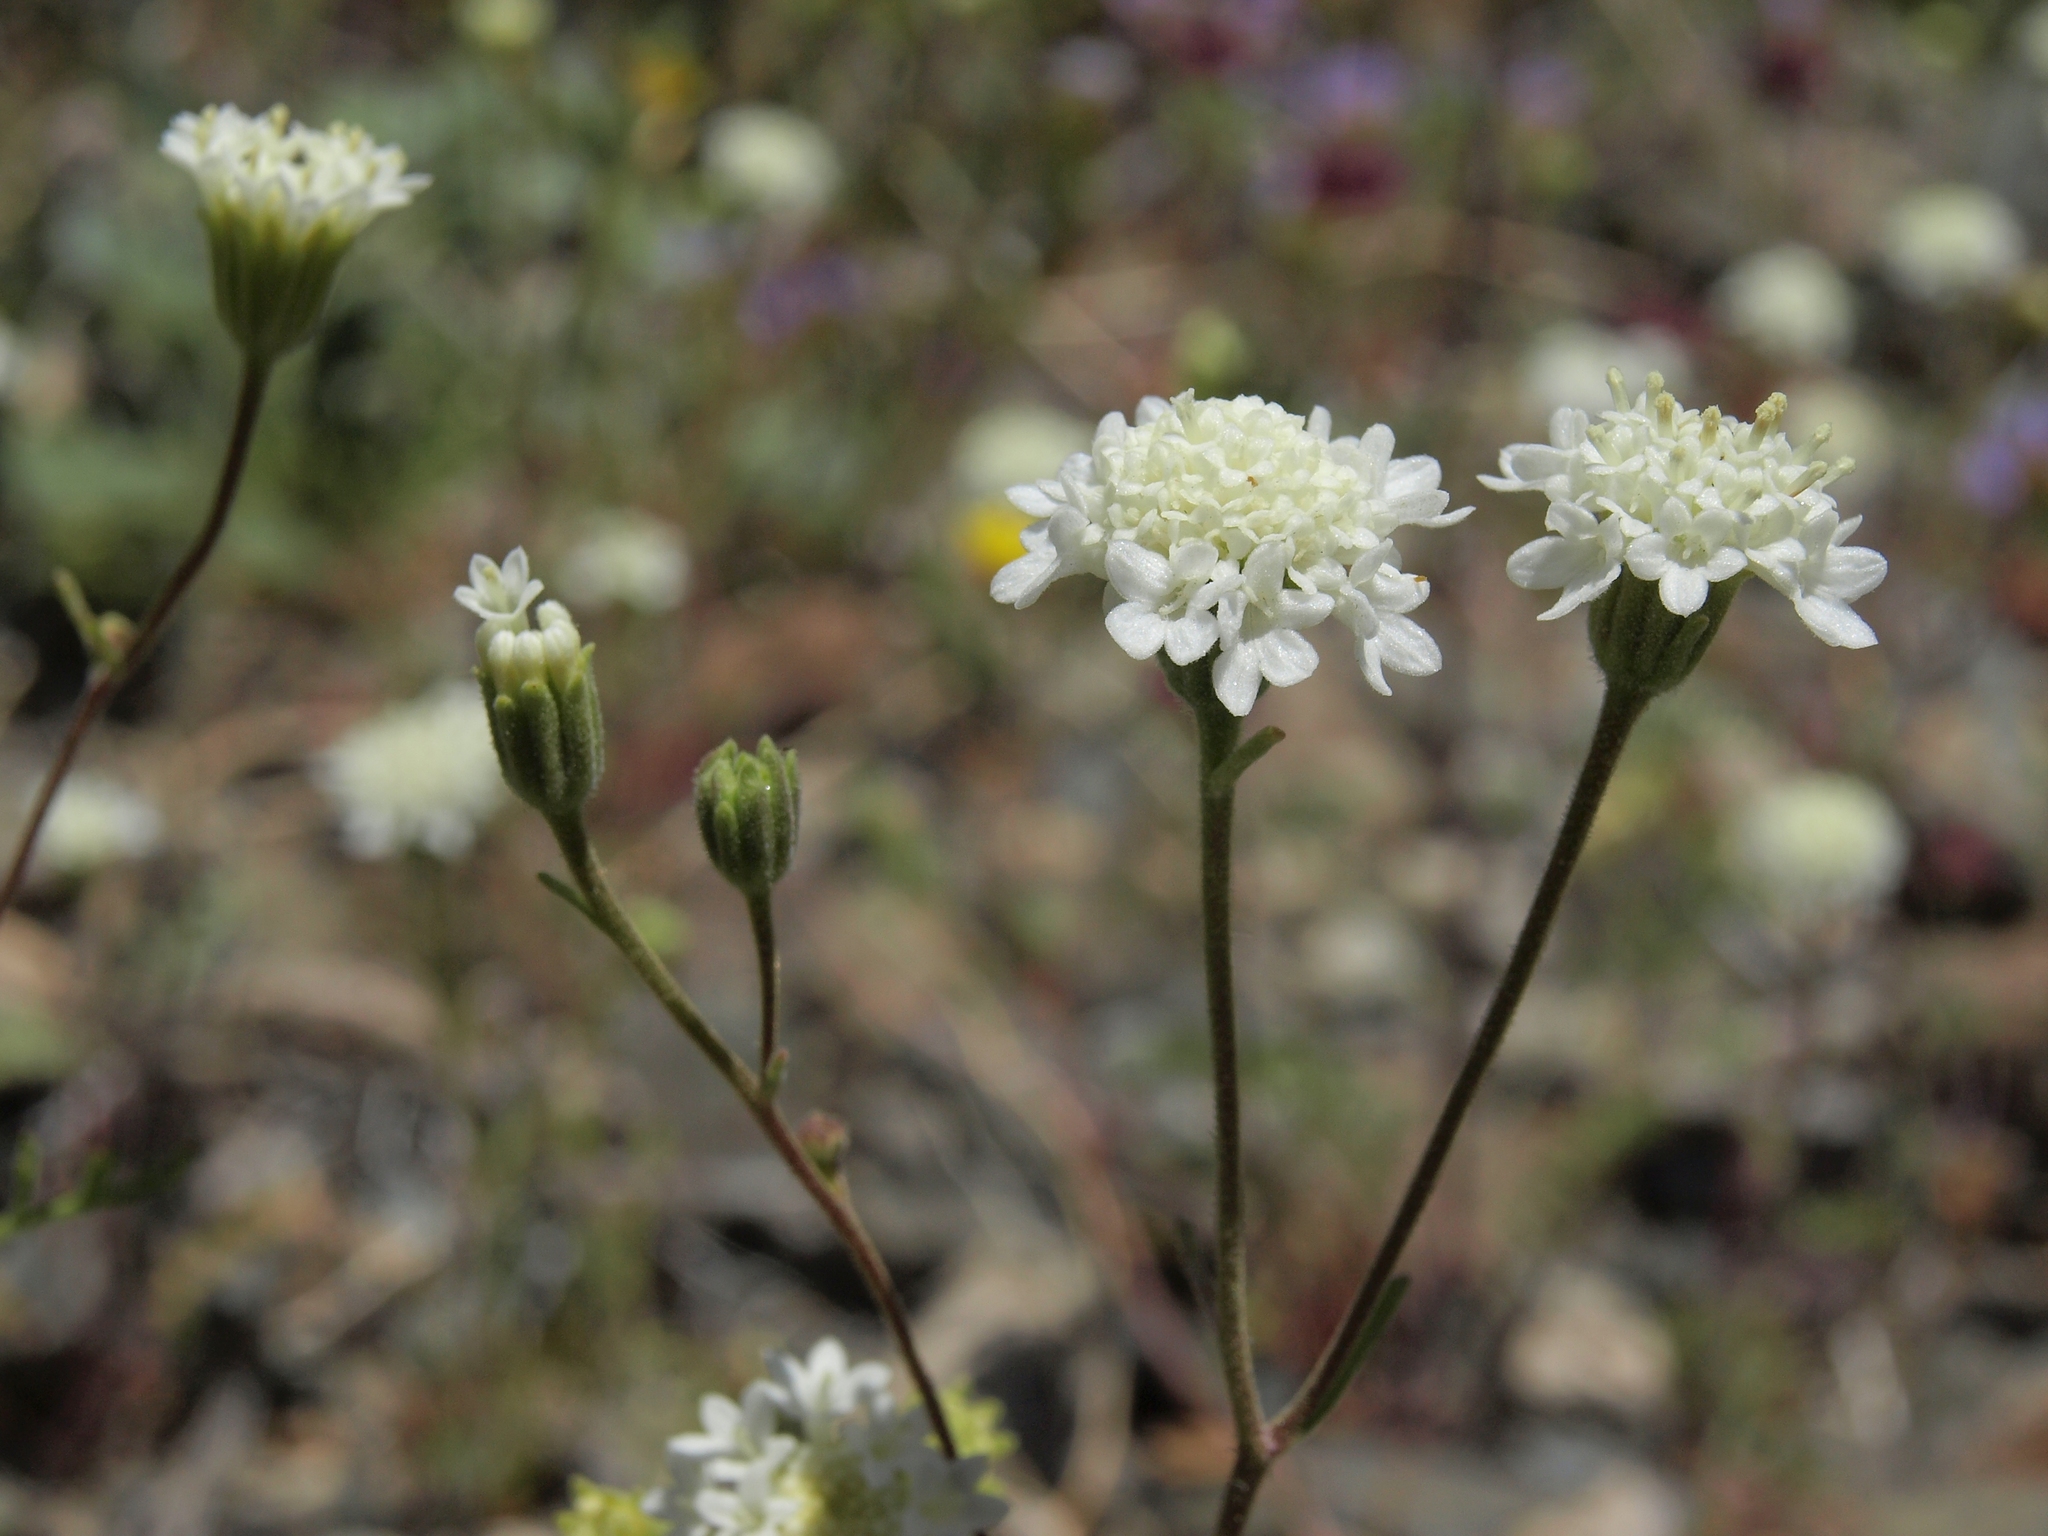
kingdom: Plantae
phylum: Tracheophyta
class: Magnoliopsida
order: Asterales
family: Asteraceae
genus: Chaenactis
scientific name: Chaenactis stevioides
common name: Desert pincushion
